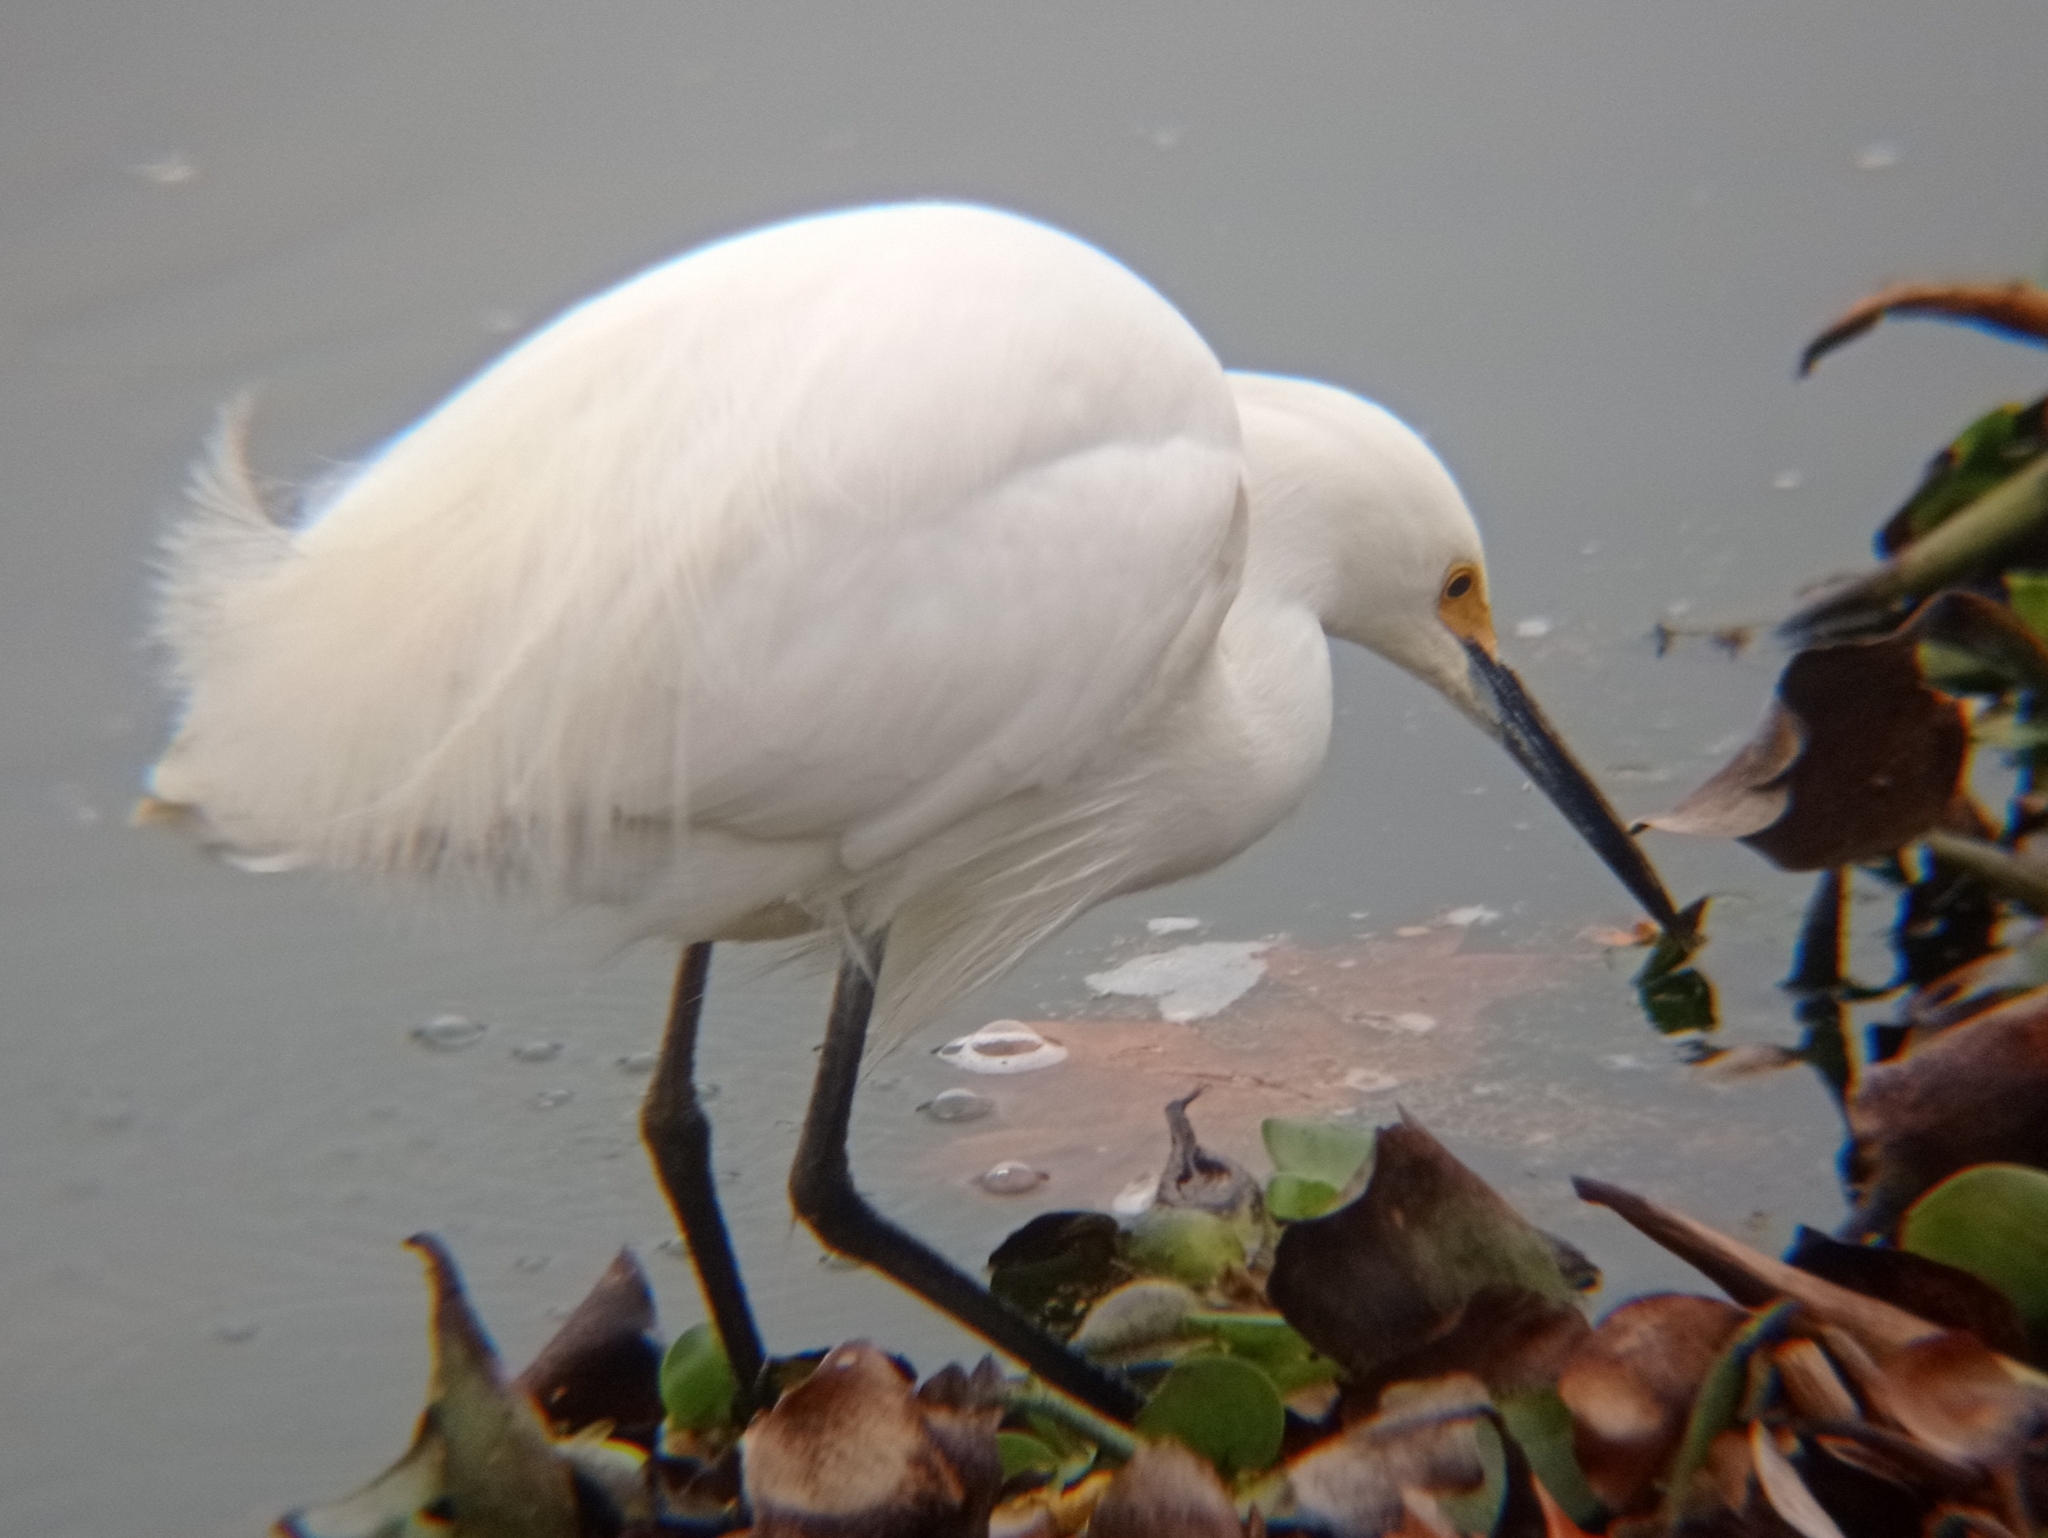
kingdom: Animalia
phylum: Chordata
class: Aves
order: Pelecaniformes
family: Ardeidae
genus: Egretta
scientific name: Egretta thula
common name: Snowy egret
